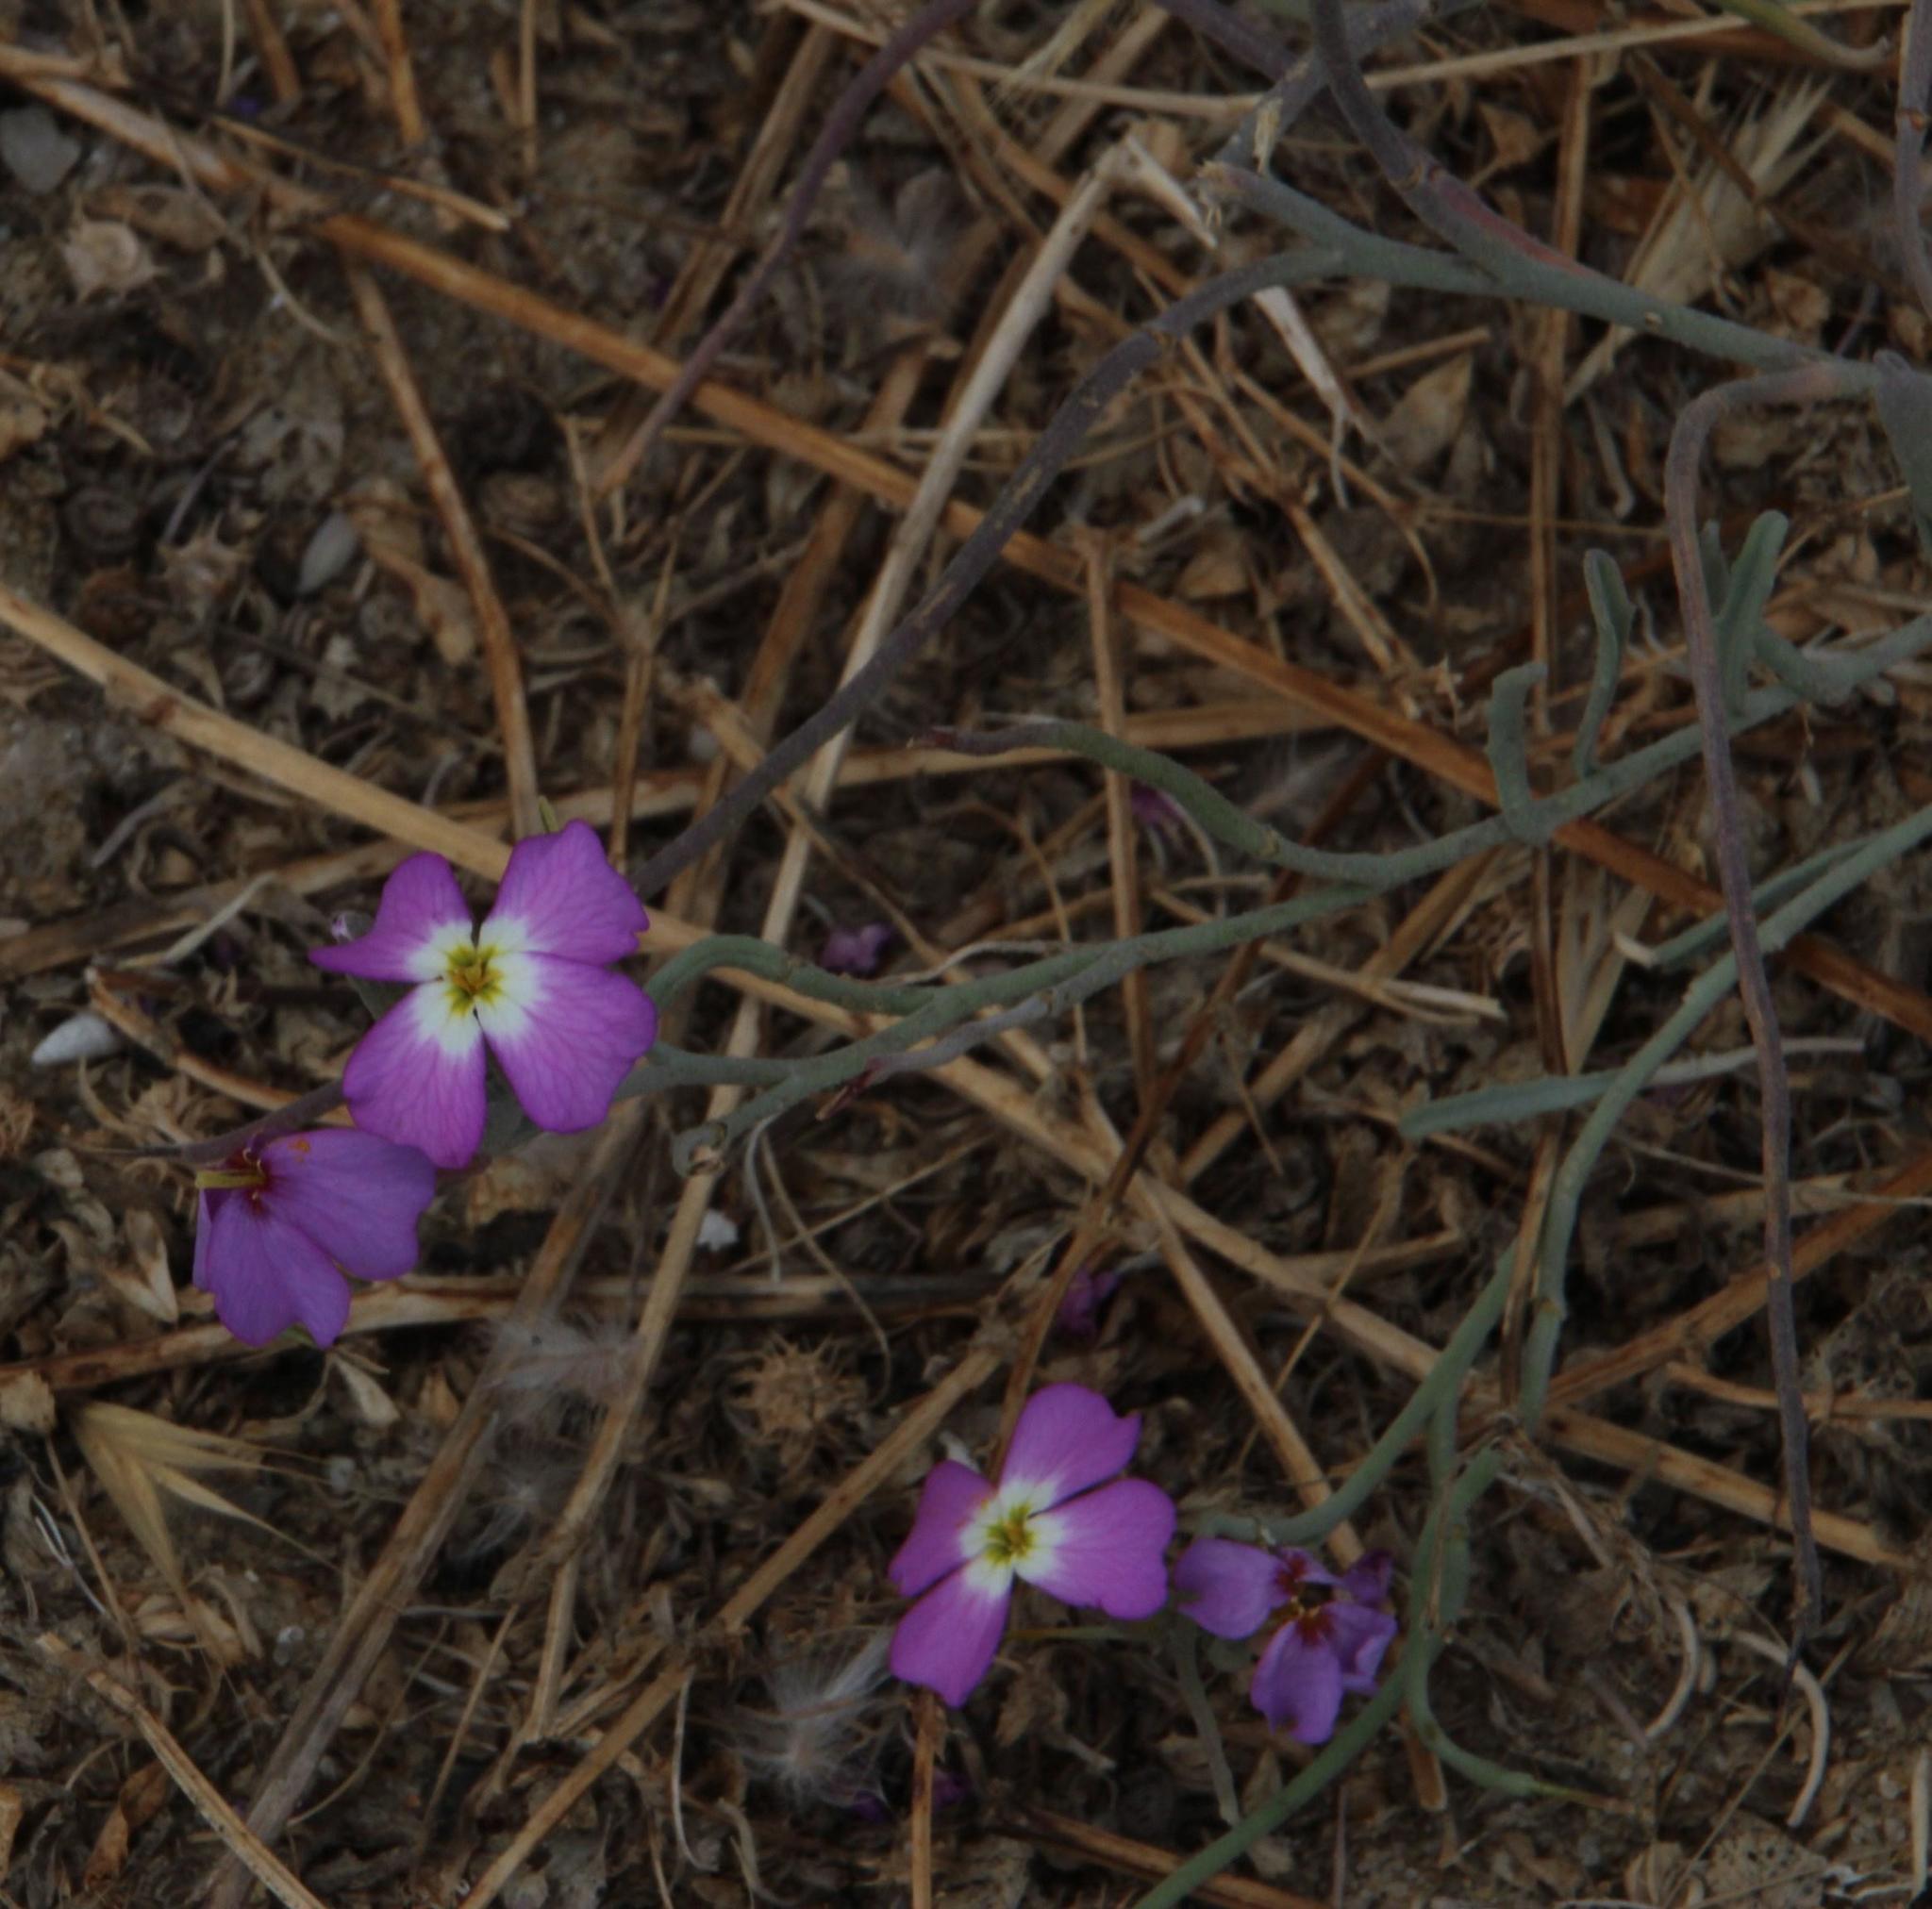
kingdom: Plantae
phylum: Tracheophyta
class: Magnoliopsida
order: Brassicales
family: Brassicaceae
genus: Marcuskochia
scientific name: Marcuskochia littorea
